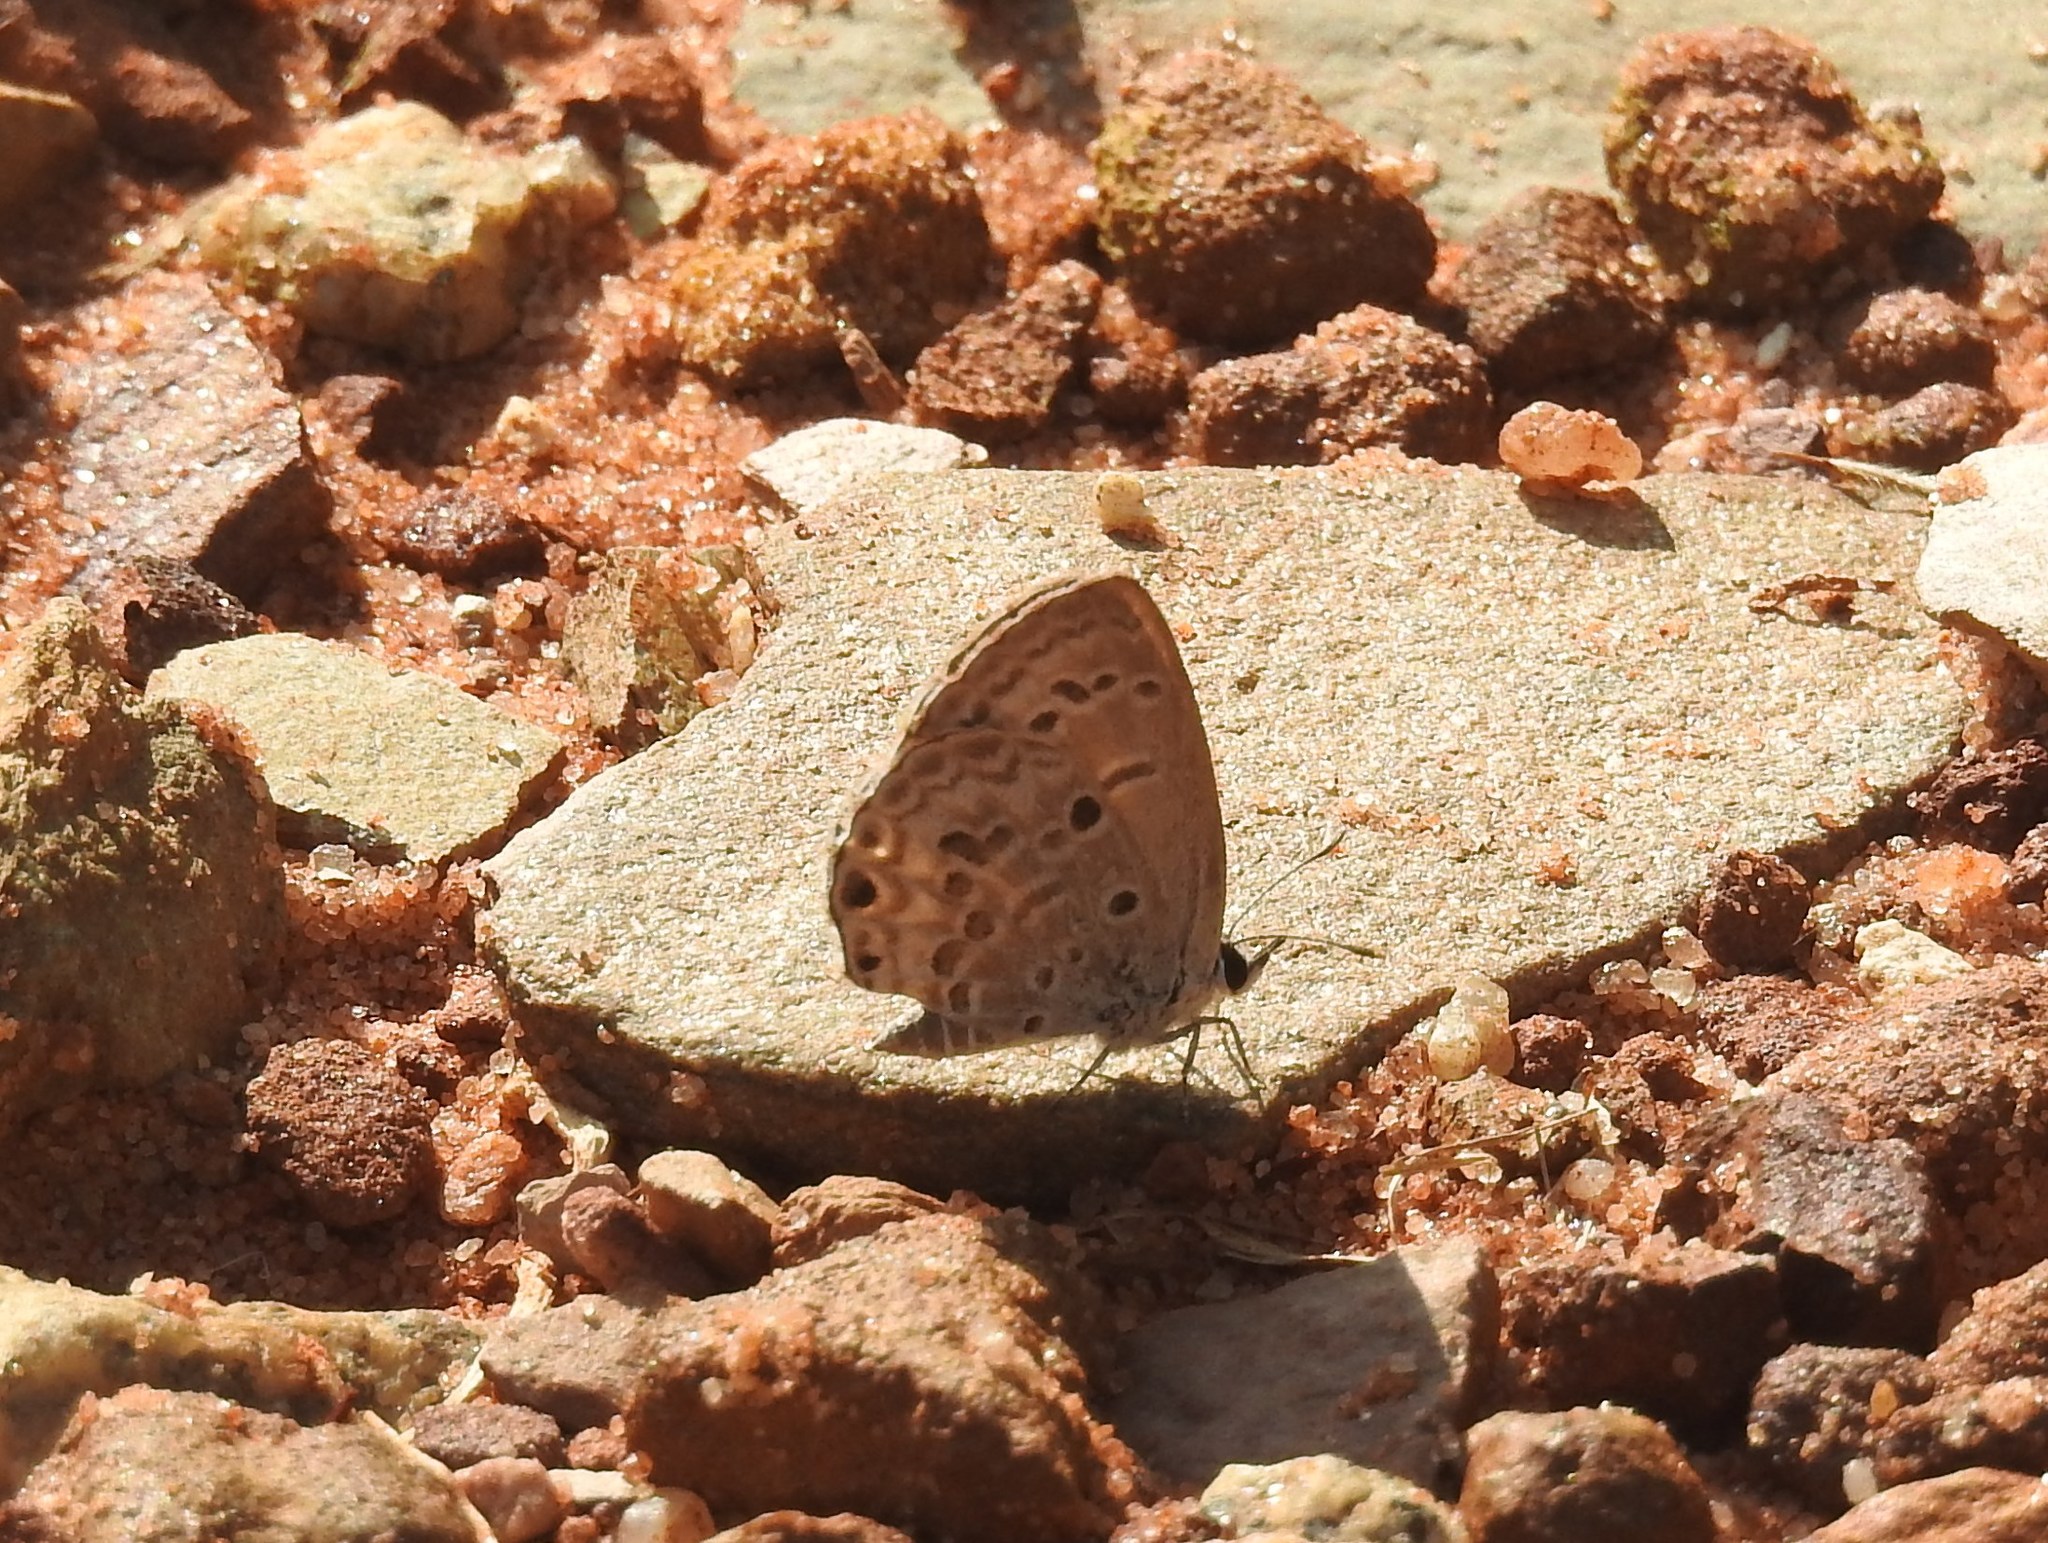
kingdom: Animalia
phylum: Arthropoda
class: Insecta
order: Lepidoptera
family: Lycaenidae
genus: Chilades
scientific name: Chilades laius
